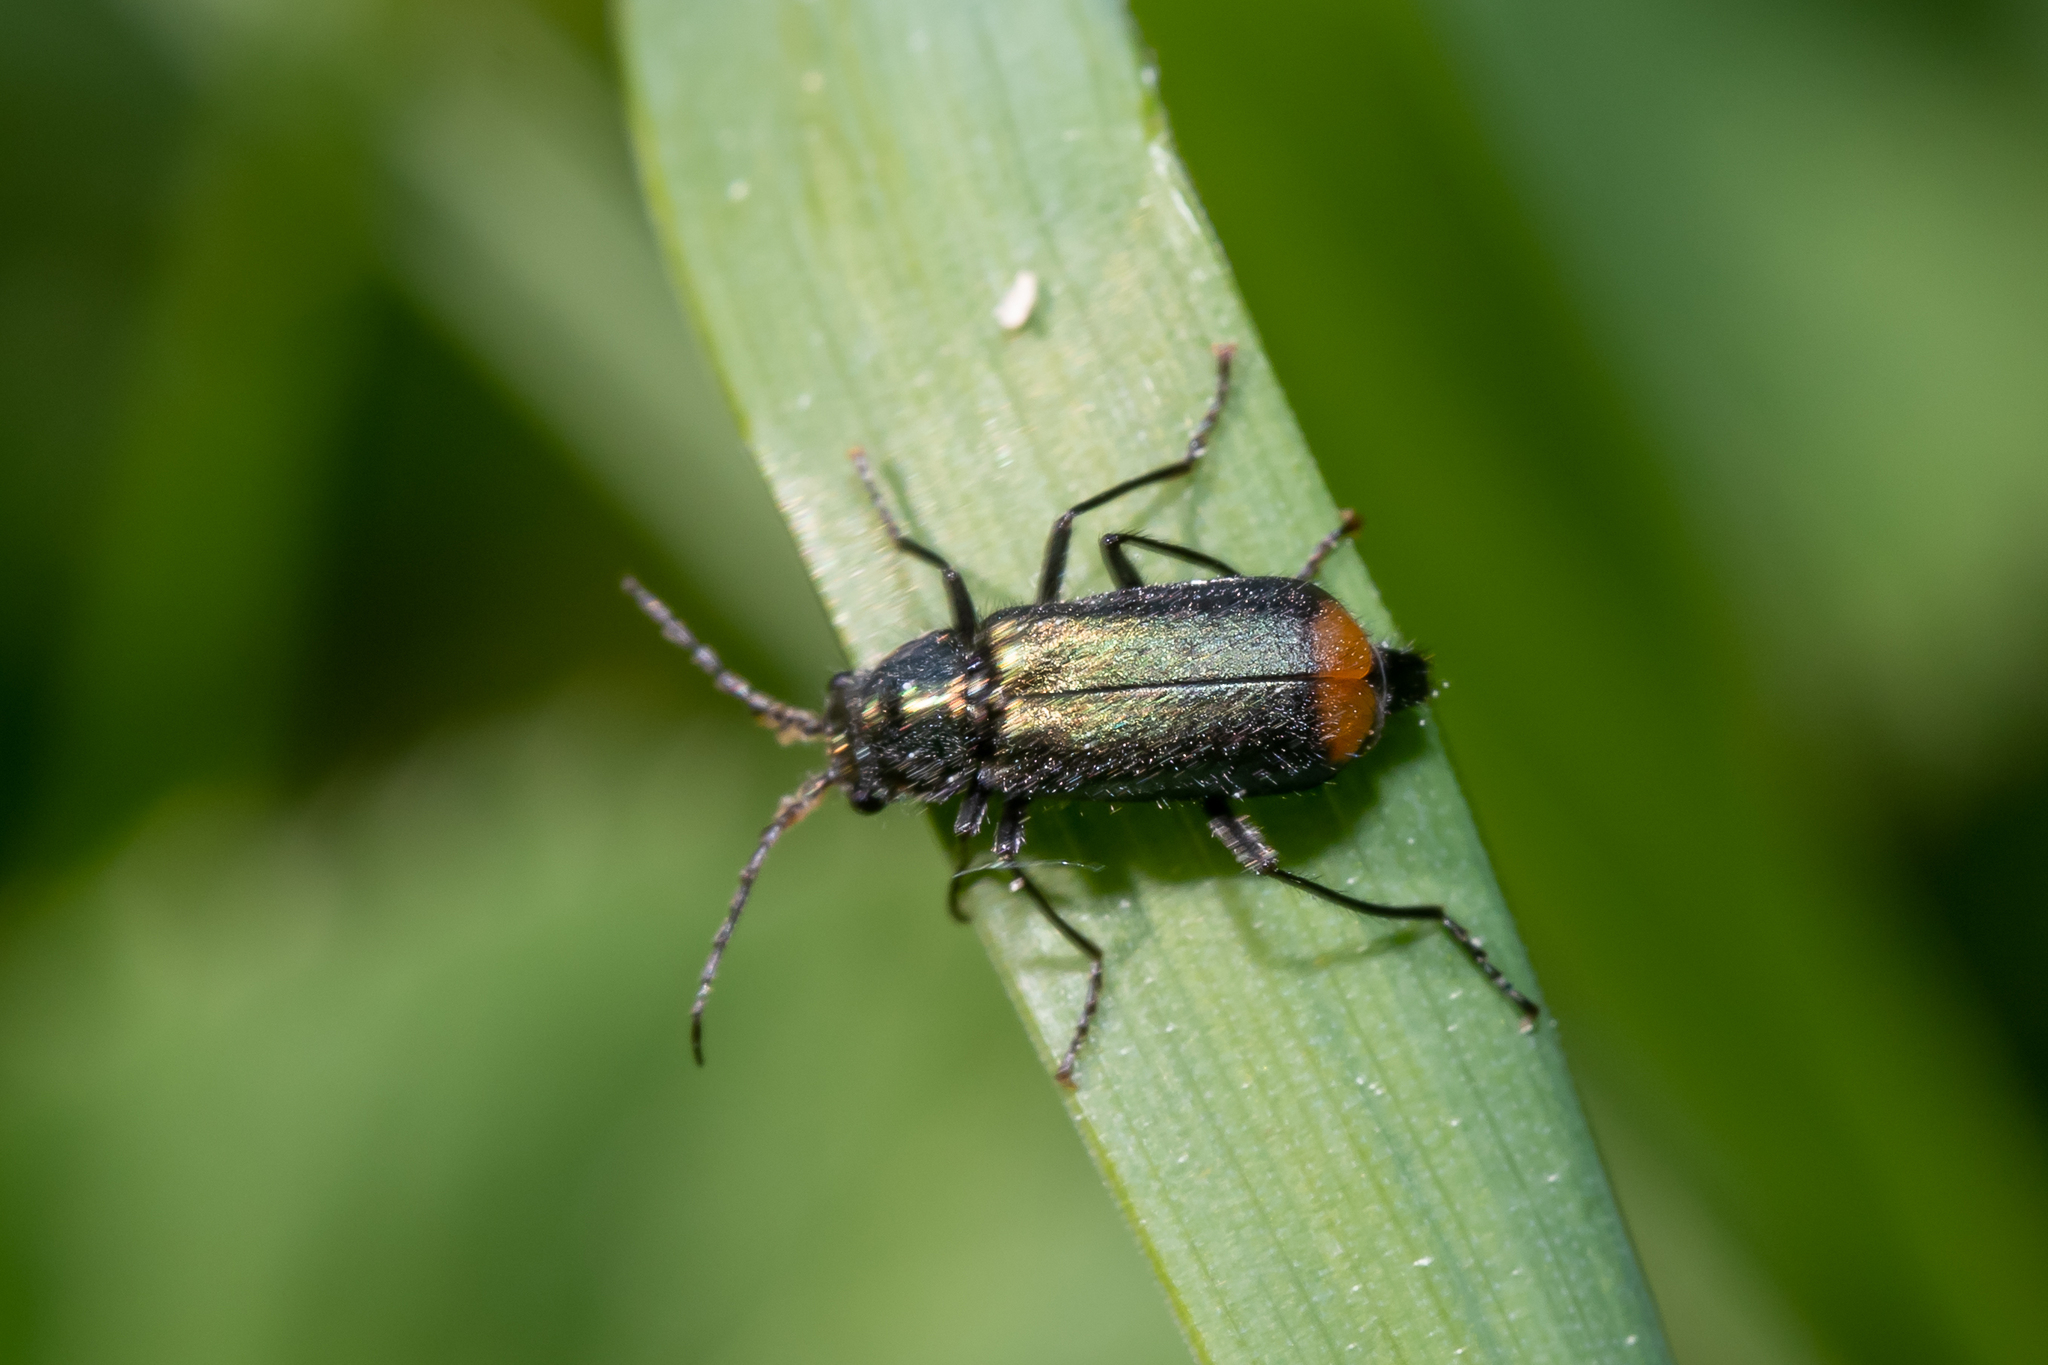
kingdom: Animalia
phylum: Arthropoda
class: Insecta
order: Coleoptera
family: Melyridae
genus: Malachius
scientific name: Malachius bipustulatus
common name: Malachite beetle
